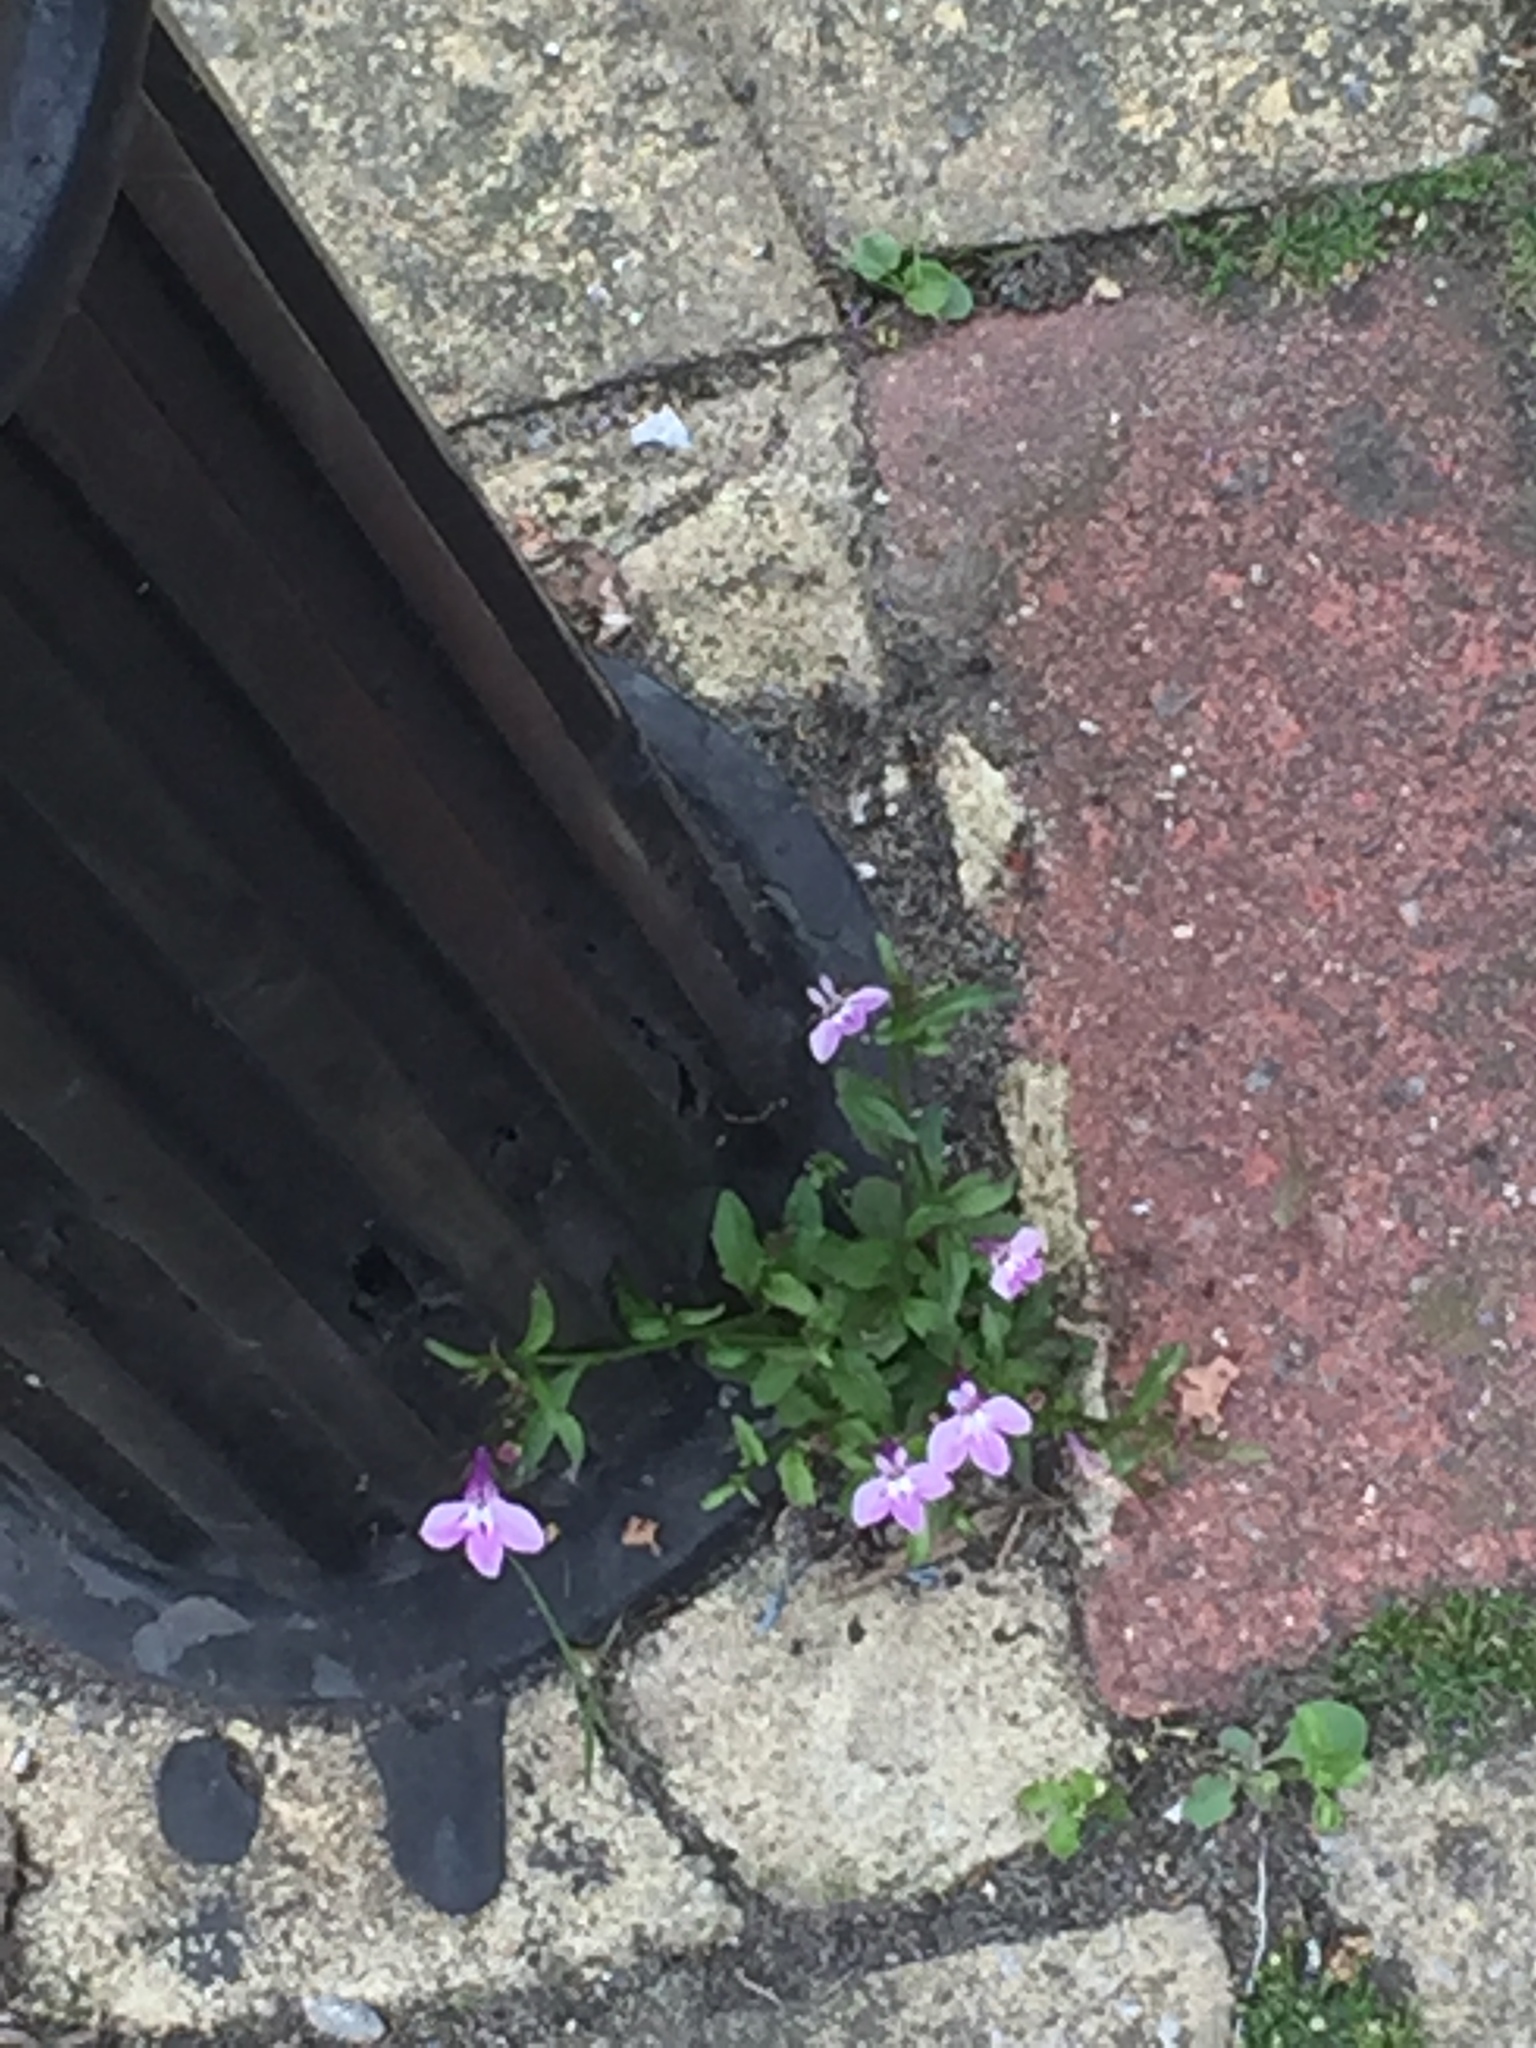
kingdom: Plantae
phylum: Tracheophyta
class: Magnoliopsida
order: Asterales
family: Campanulaceae
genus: Lobelia
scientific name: Lobelia erinus
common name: Edging lobelia
